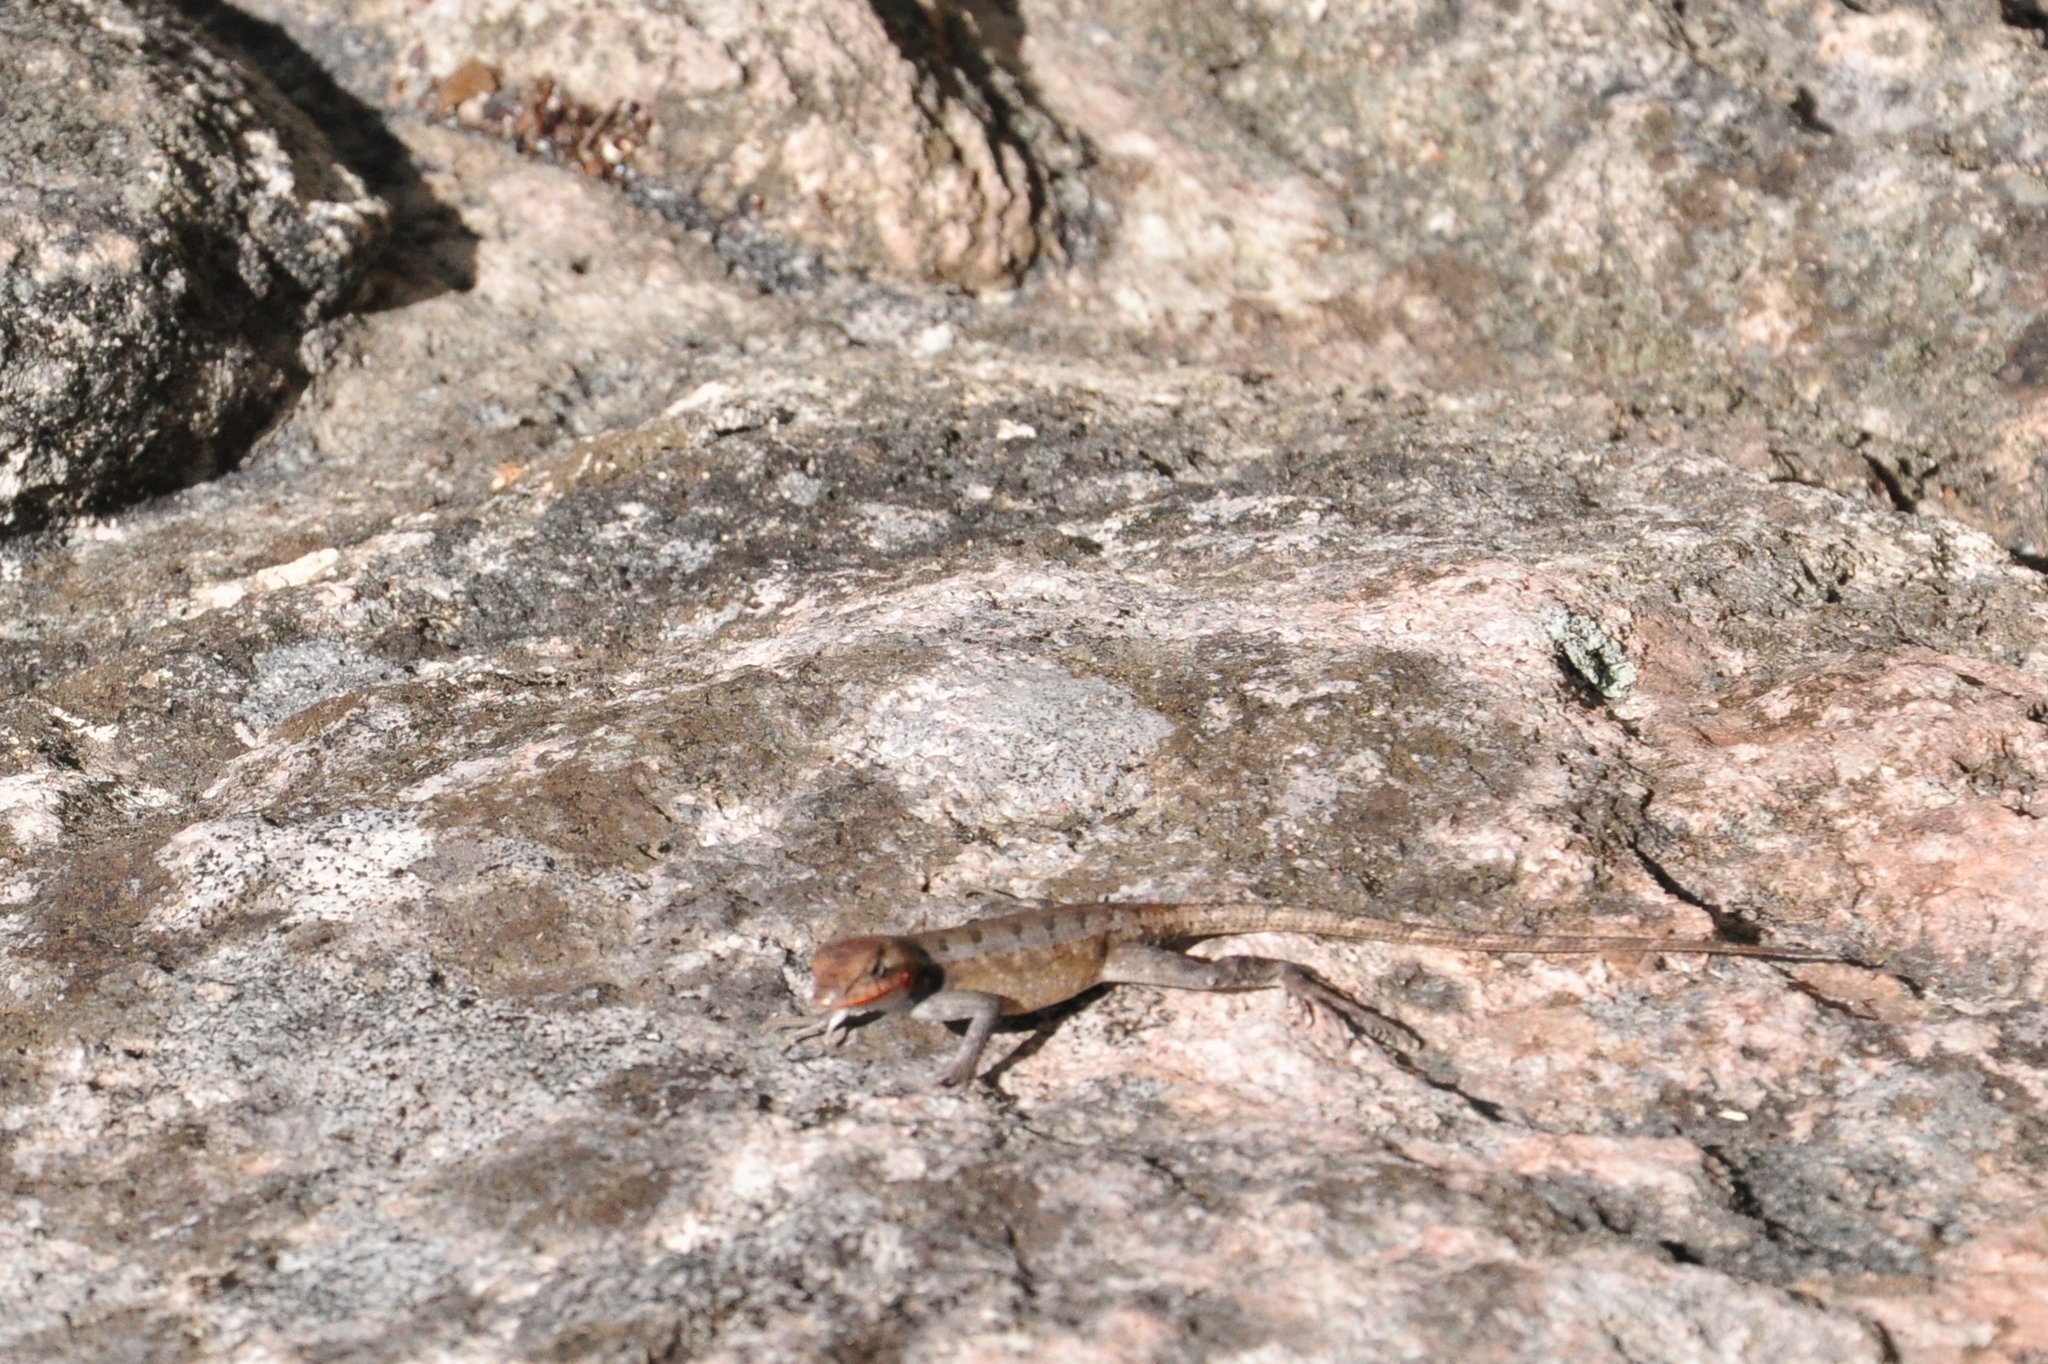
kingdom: Animalia
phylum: Chordata
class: Squamata
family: Phrynosomatidae
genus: Sceloporus
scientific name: Sceloporus chrysostictus
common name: Yellow-spotted spiny lizard
